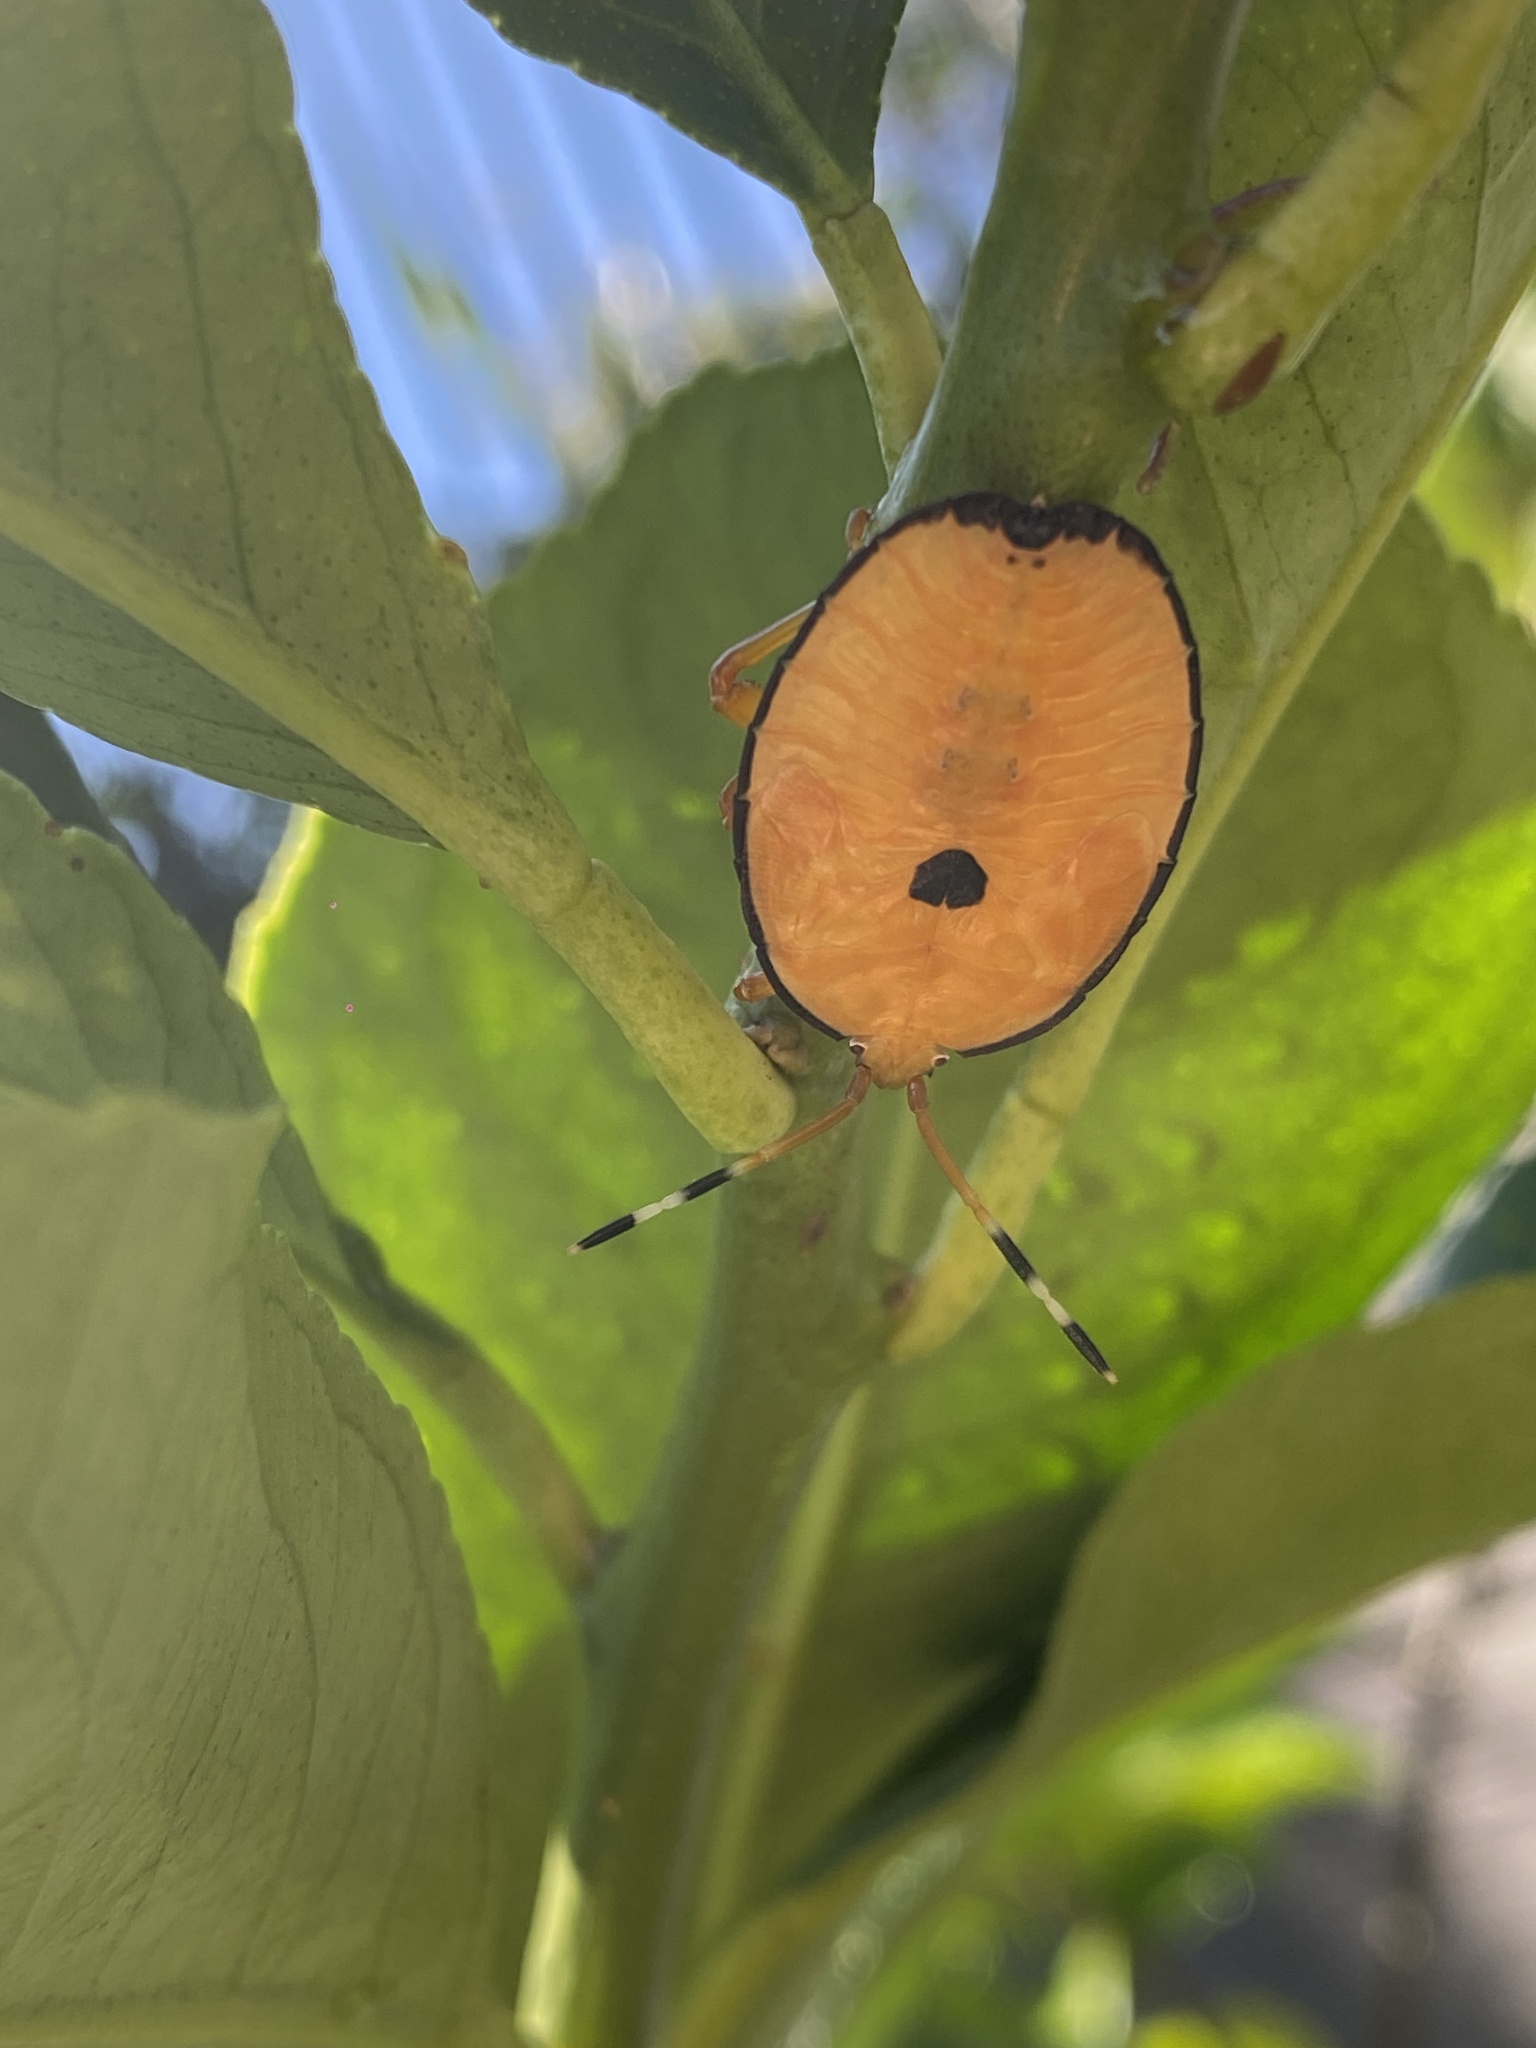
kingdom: Animalia
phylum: Arthropoda
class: Insecta
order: Hemiptera
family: Tessaratomidae
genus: Musgraveia
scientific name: Musgraveia sulciventris
